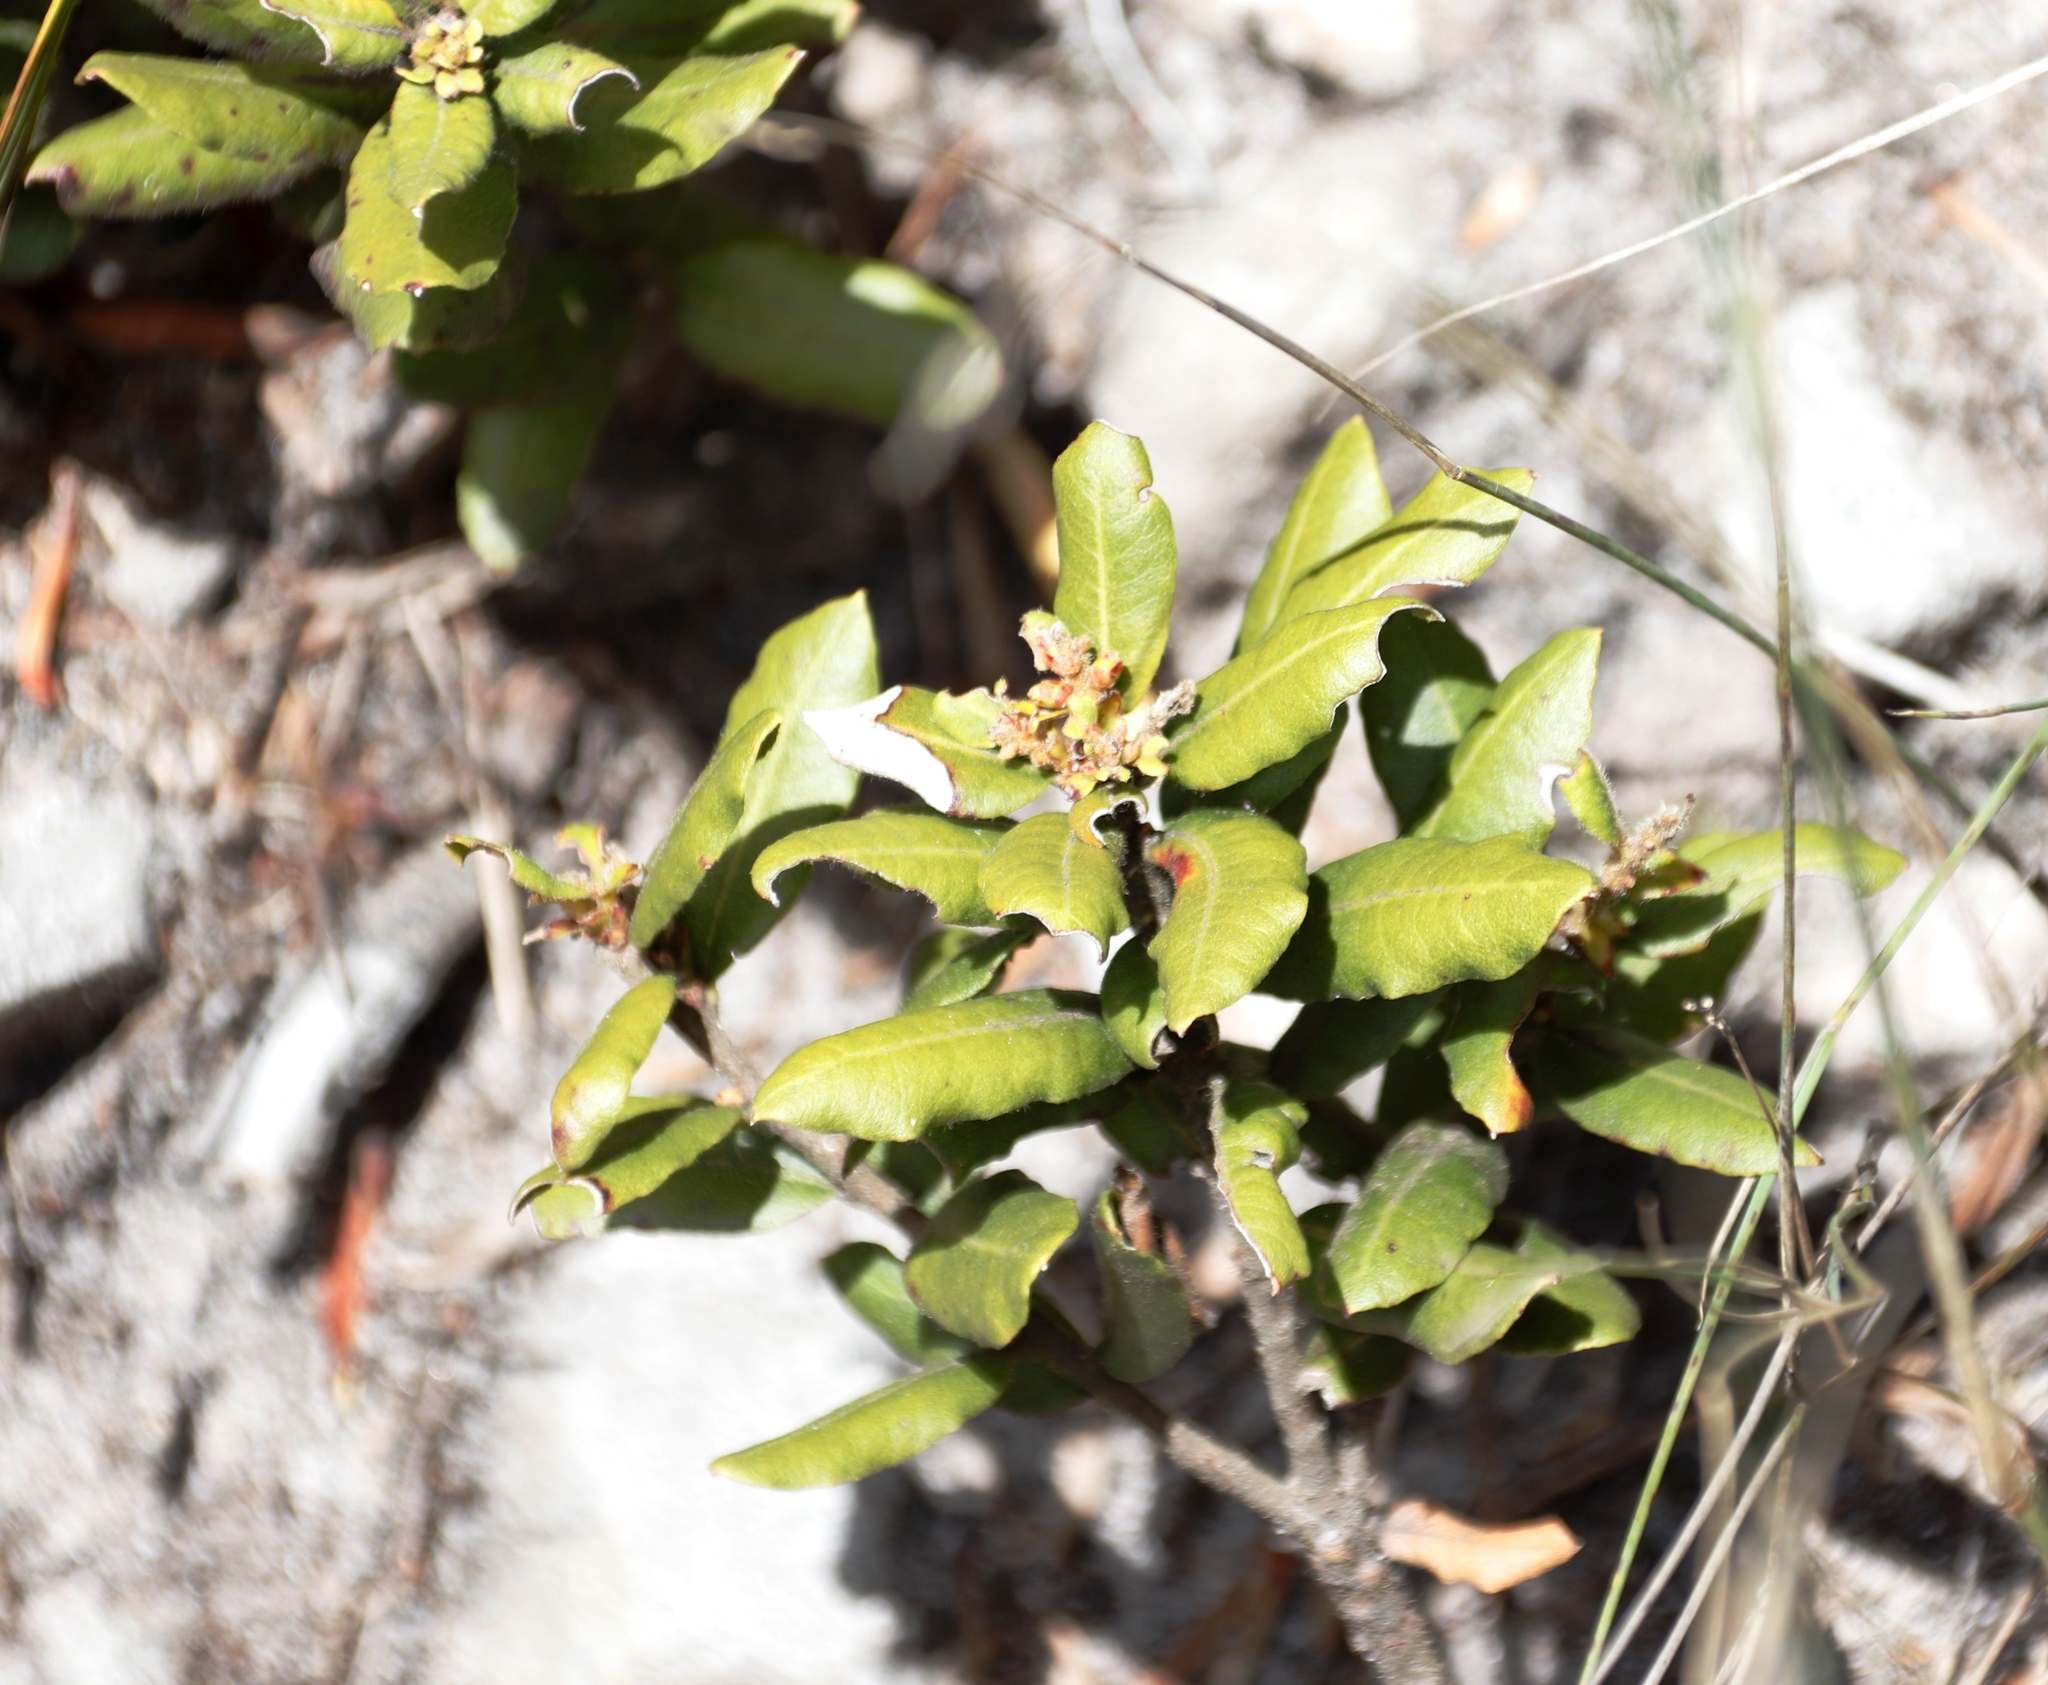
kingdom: Plantae
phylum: Tracheophyta
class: Magnoliopsida
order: Fagales
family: Myricaceae
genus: Morella
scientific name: Morella kraussiana
